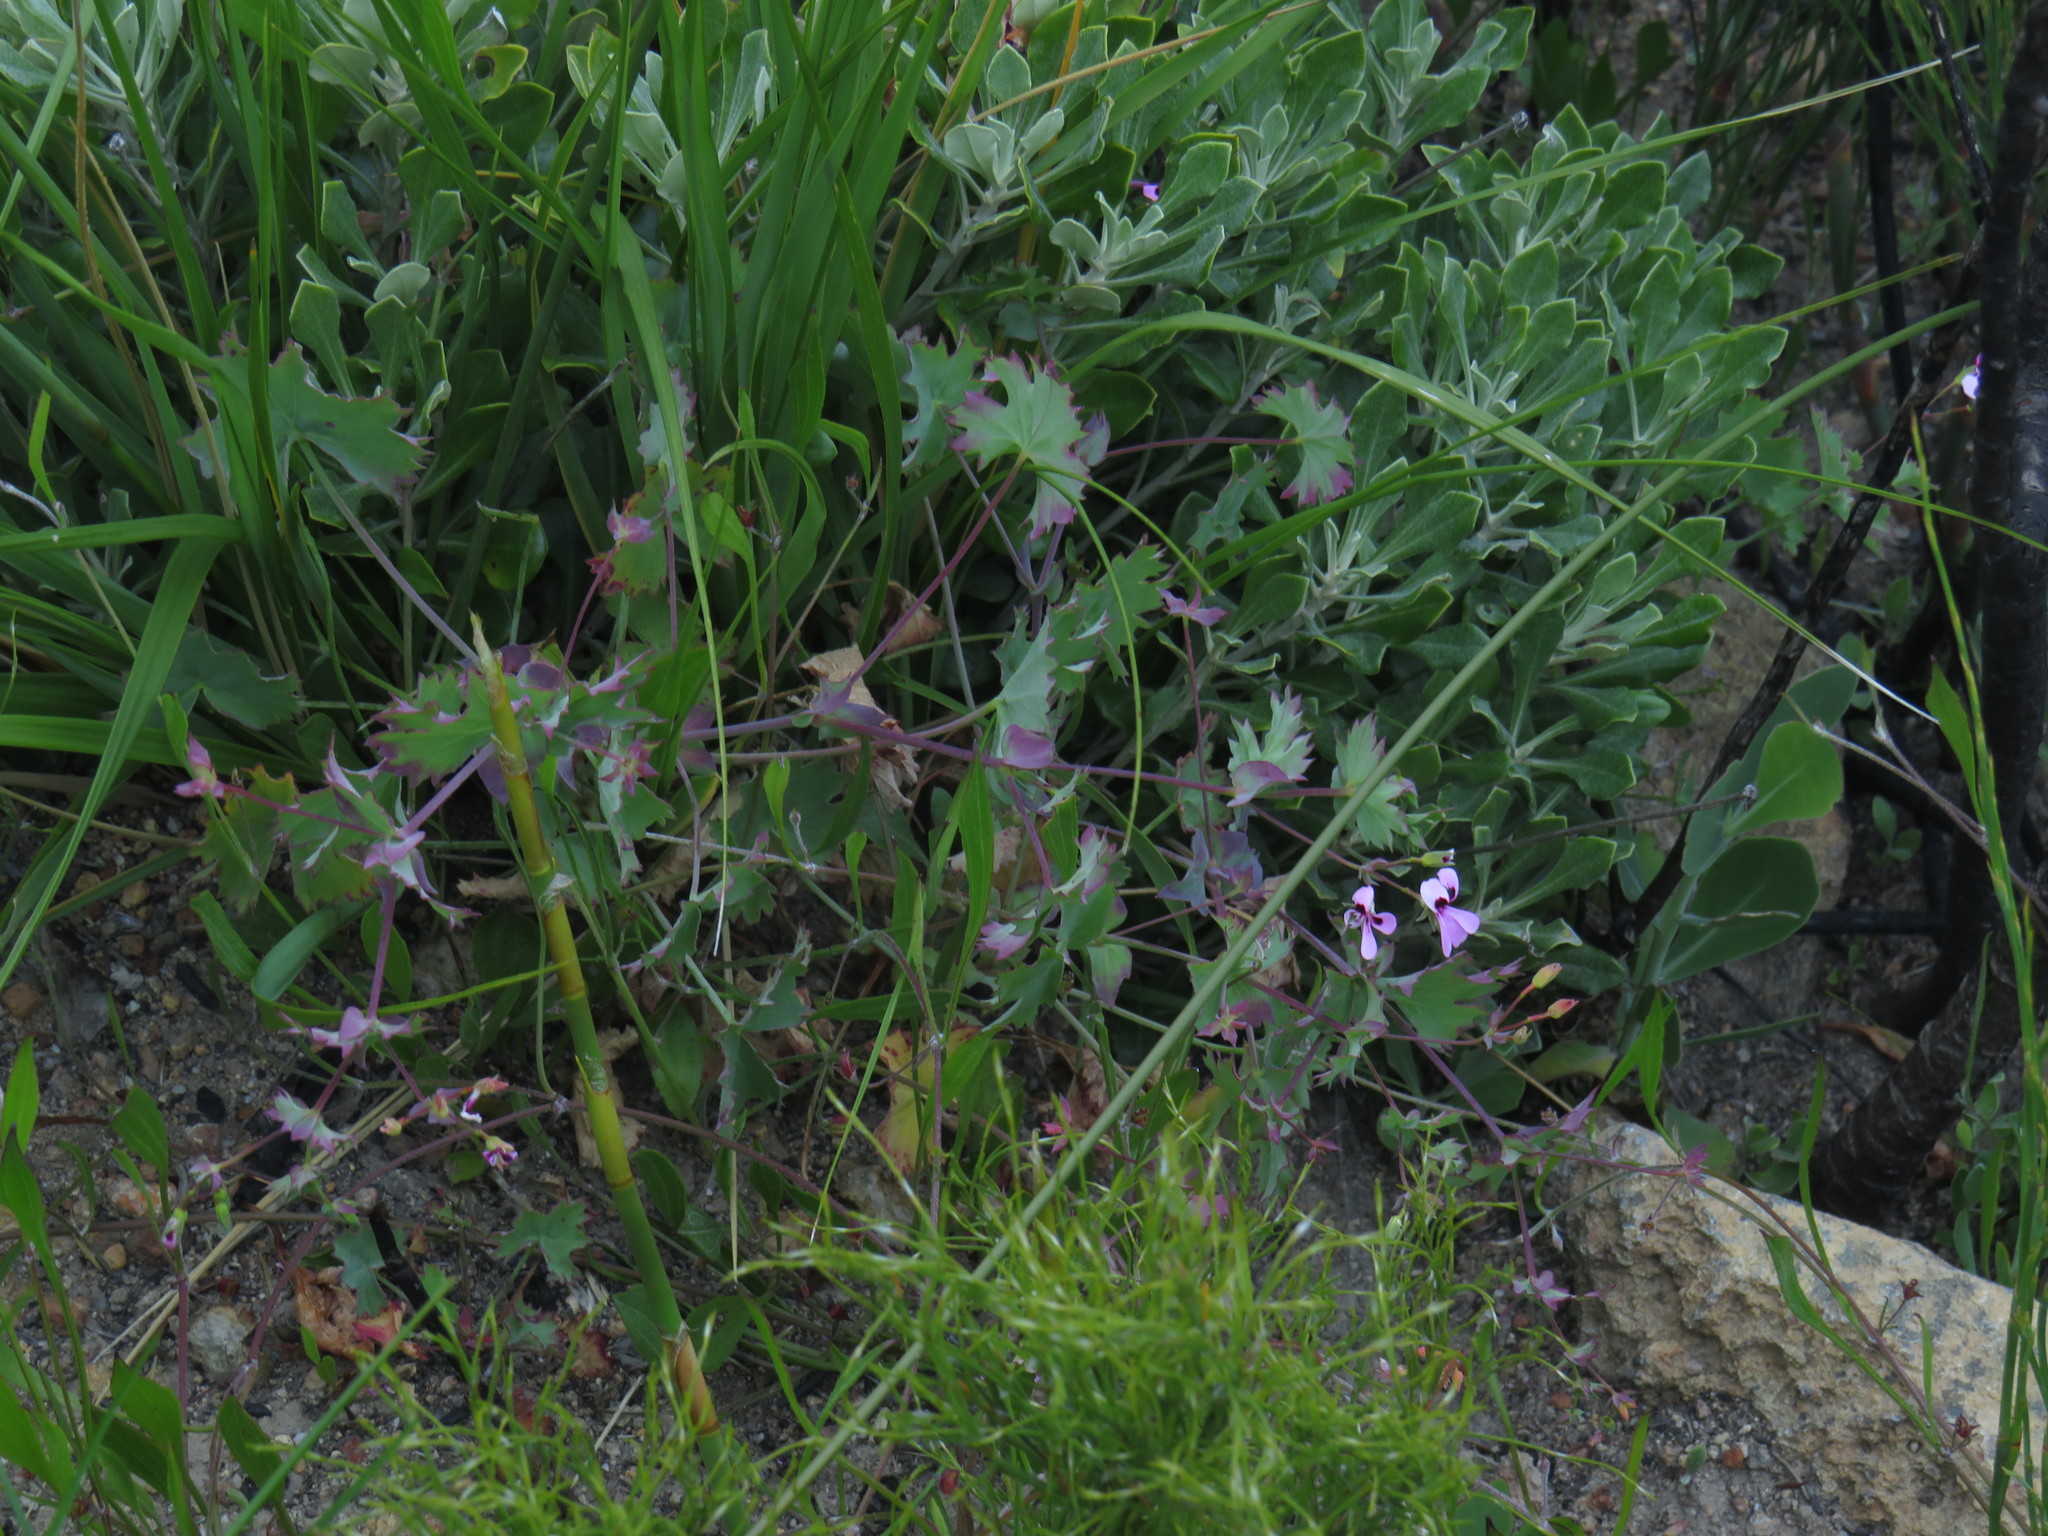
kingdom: Plantae
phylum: Tracheophyta
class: Magnoliopsida
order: Geraniales
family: Geraniaceae
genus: Pelargonium
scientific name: Pelargonium patulum
